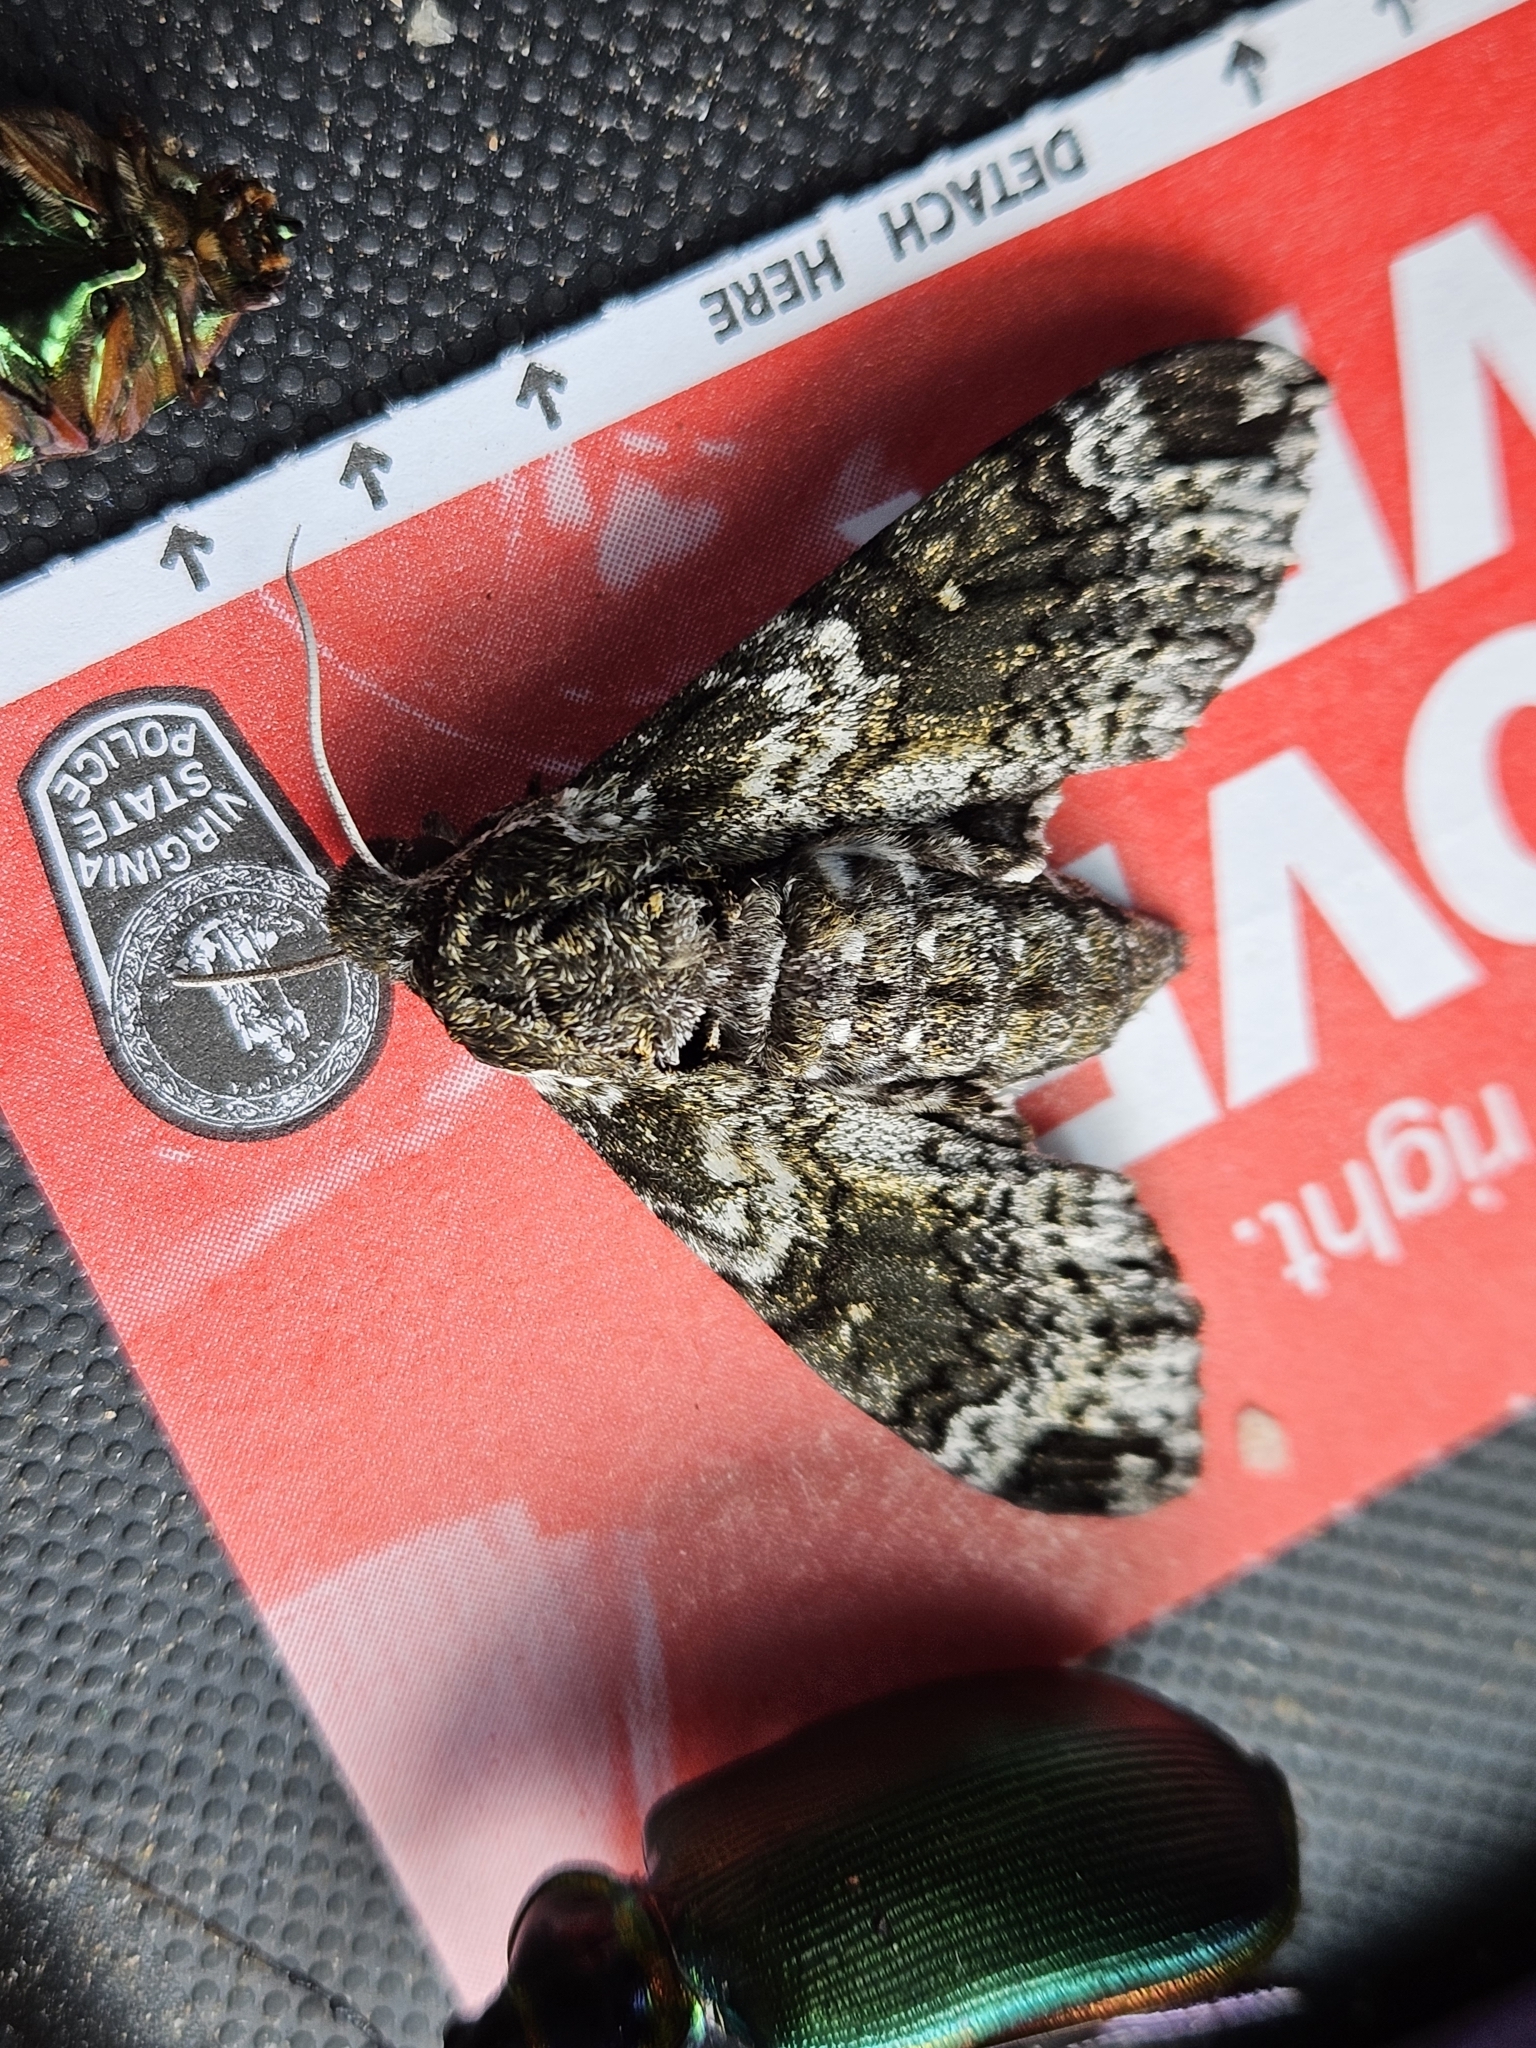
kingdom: Animalia
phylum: Arthropoda
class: Insecta
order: Lepidoptera
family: Sphingidae
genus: Dolba
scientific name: Dolba hyloeus
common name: Pawpaw sphinx
